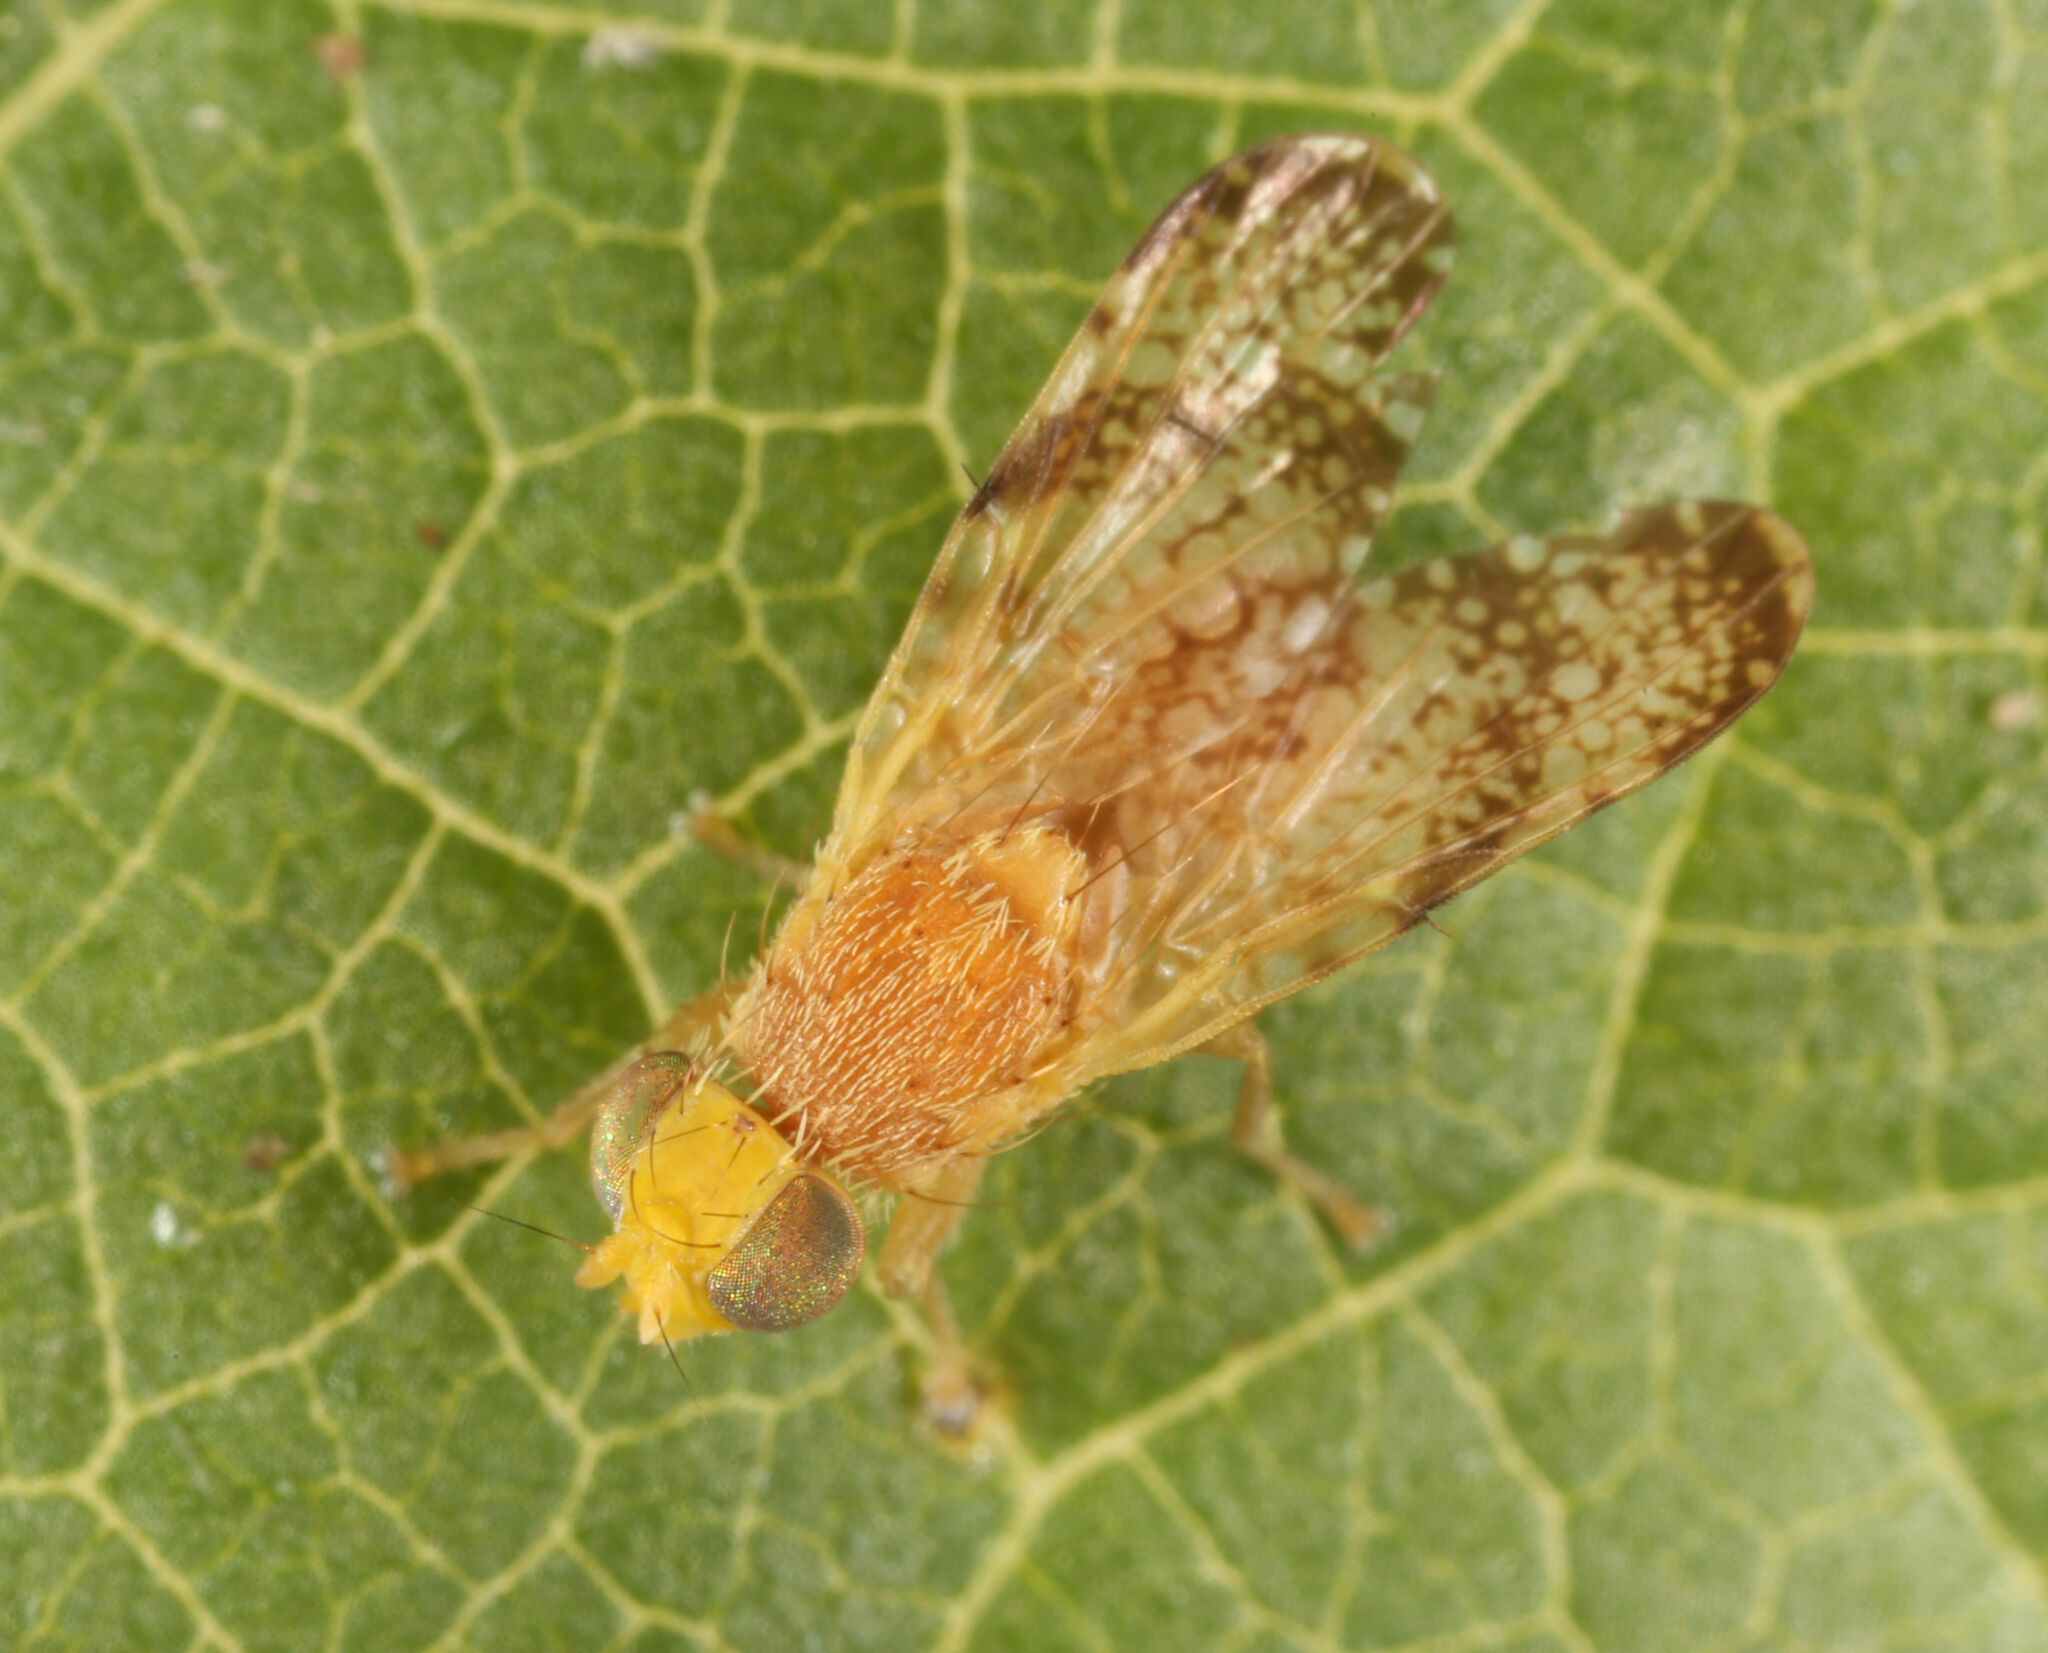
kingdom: Animalia
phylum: Arthropoda
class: Insecta
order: Diptera
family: Tephritidae
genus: Tephritis
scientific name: Tephritis baccharis
